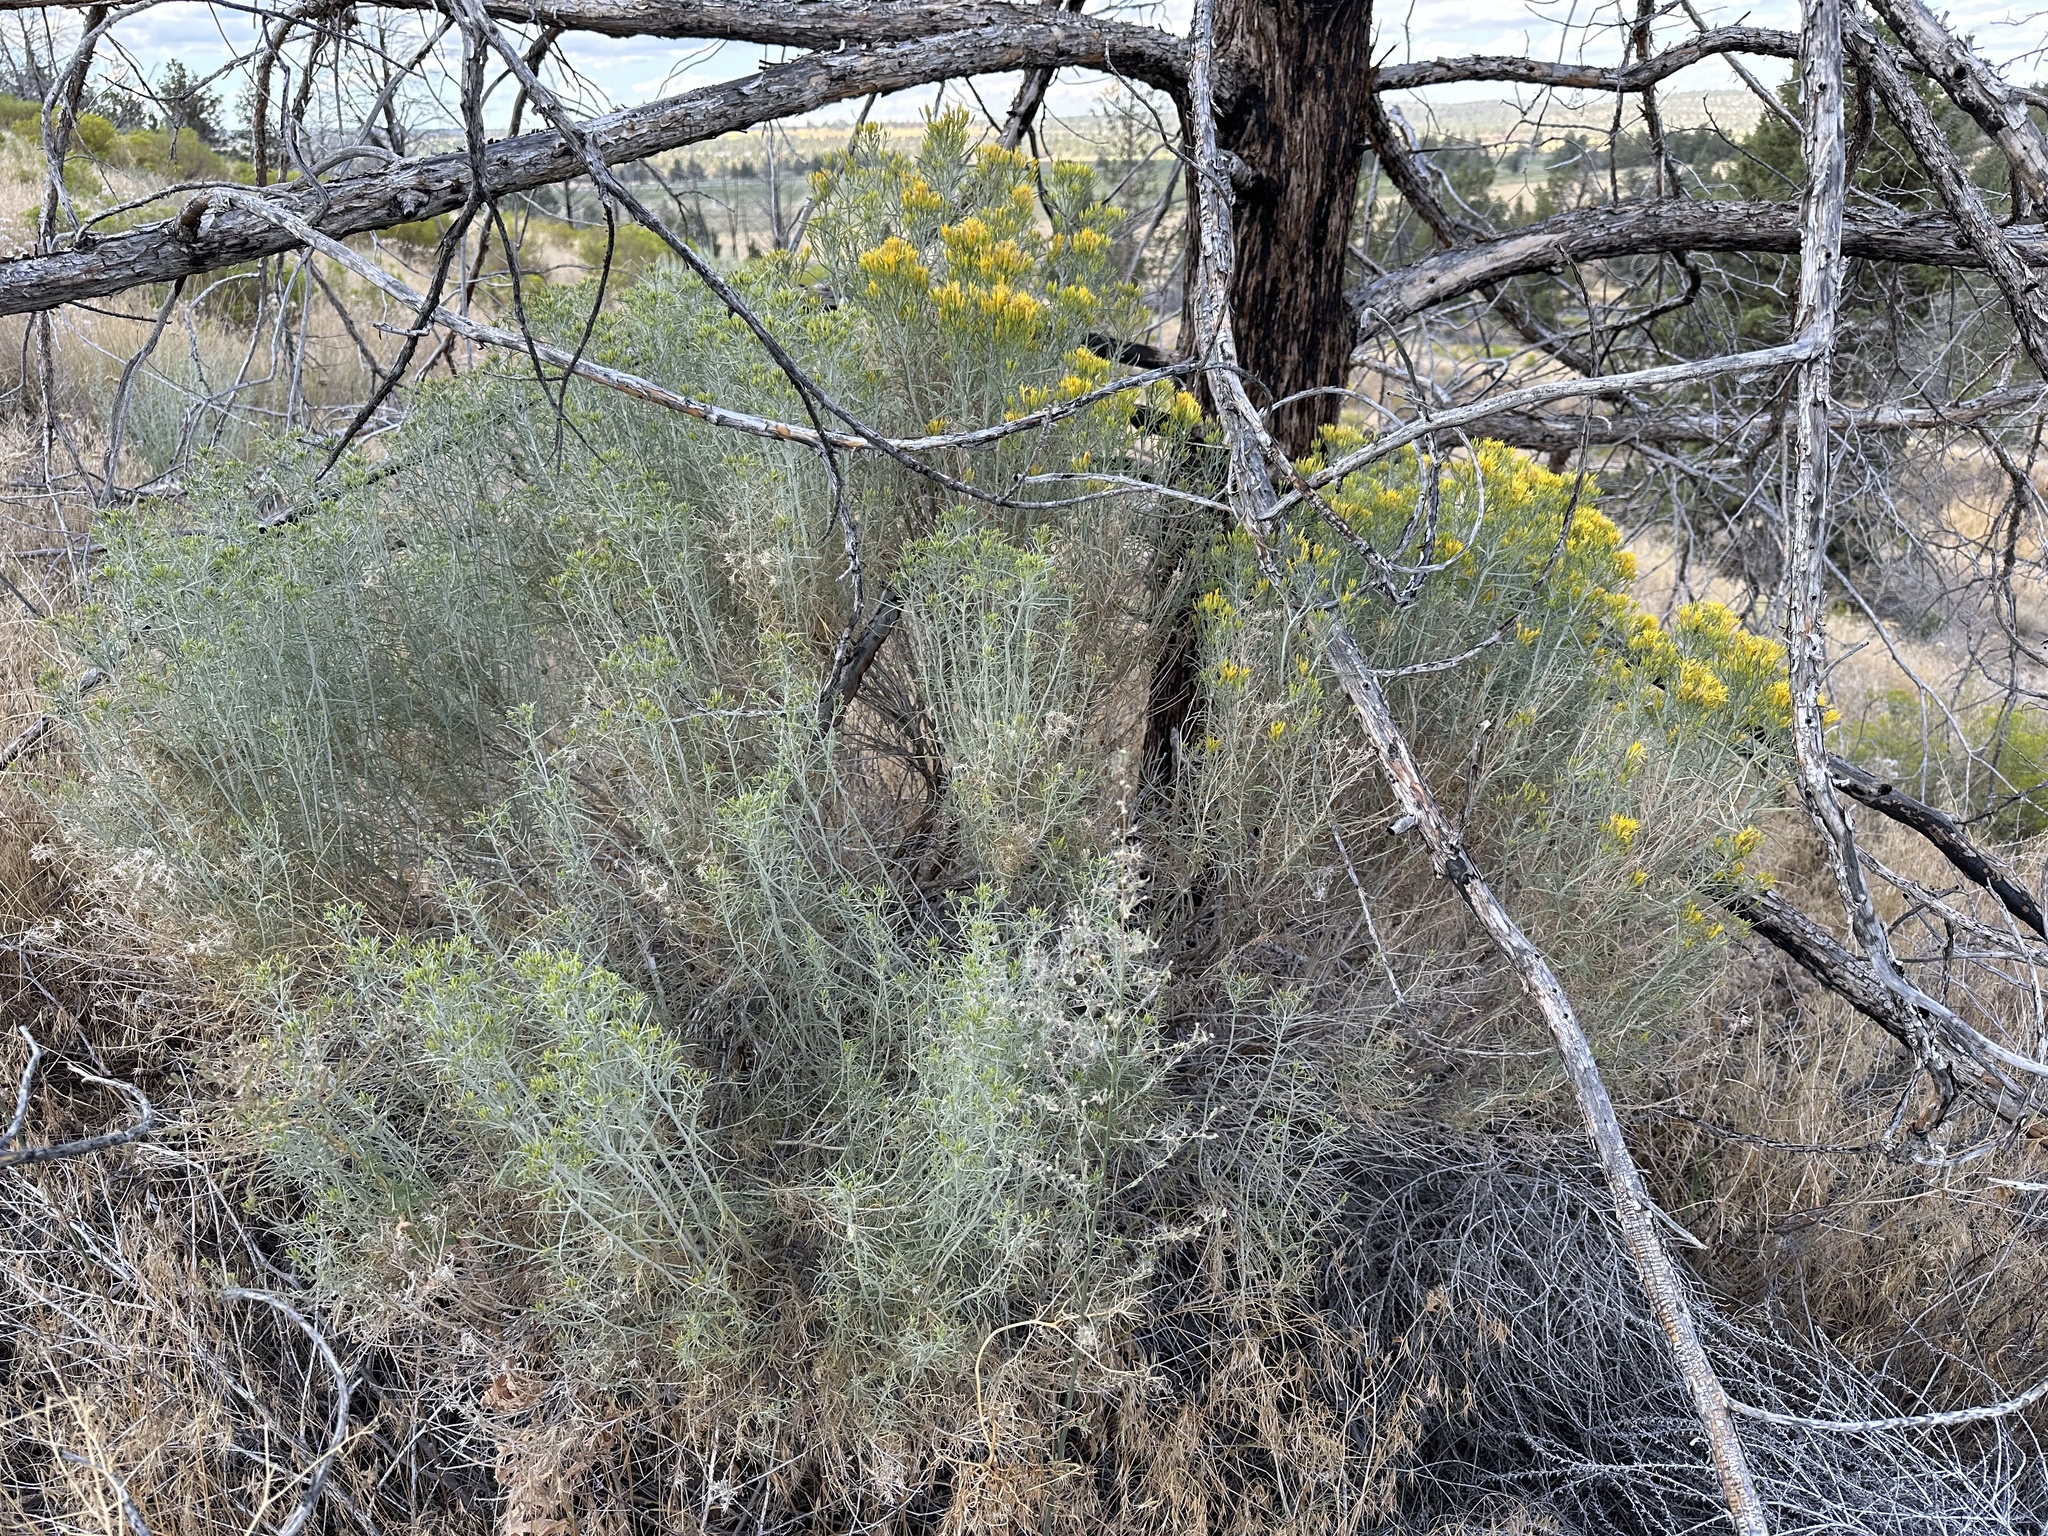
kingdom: Plantae
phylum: Tracheophyta
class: Magnoliopsida
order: Asterales
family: Asteraceae
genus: Ericameria
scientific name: Ericameria nauseosa
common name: Rubber rabbitbrush
